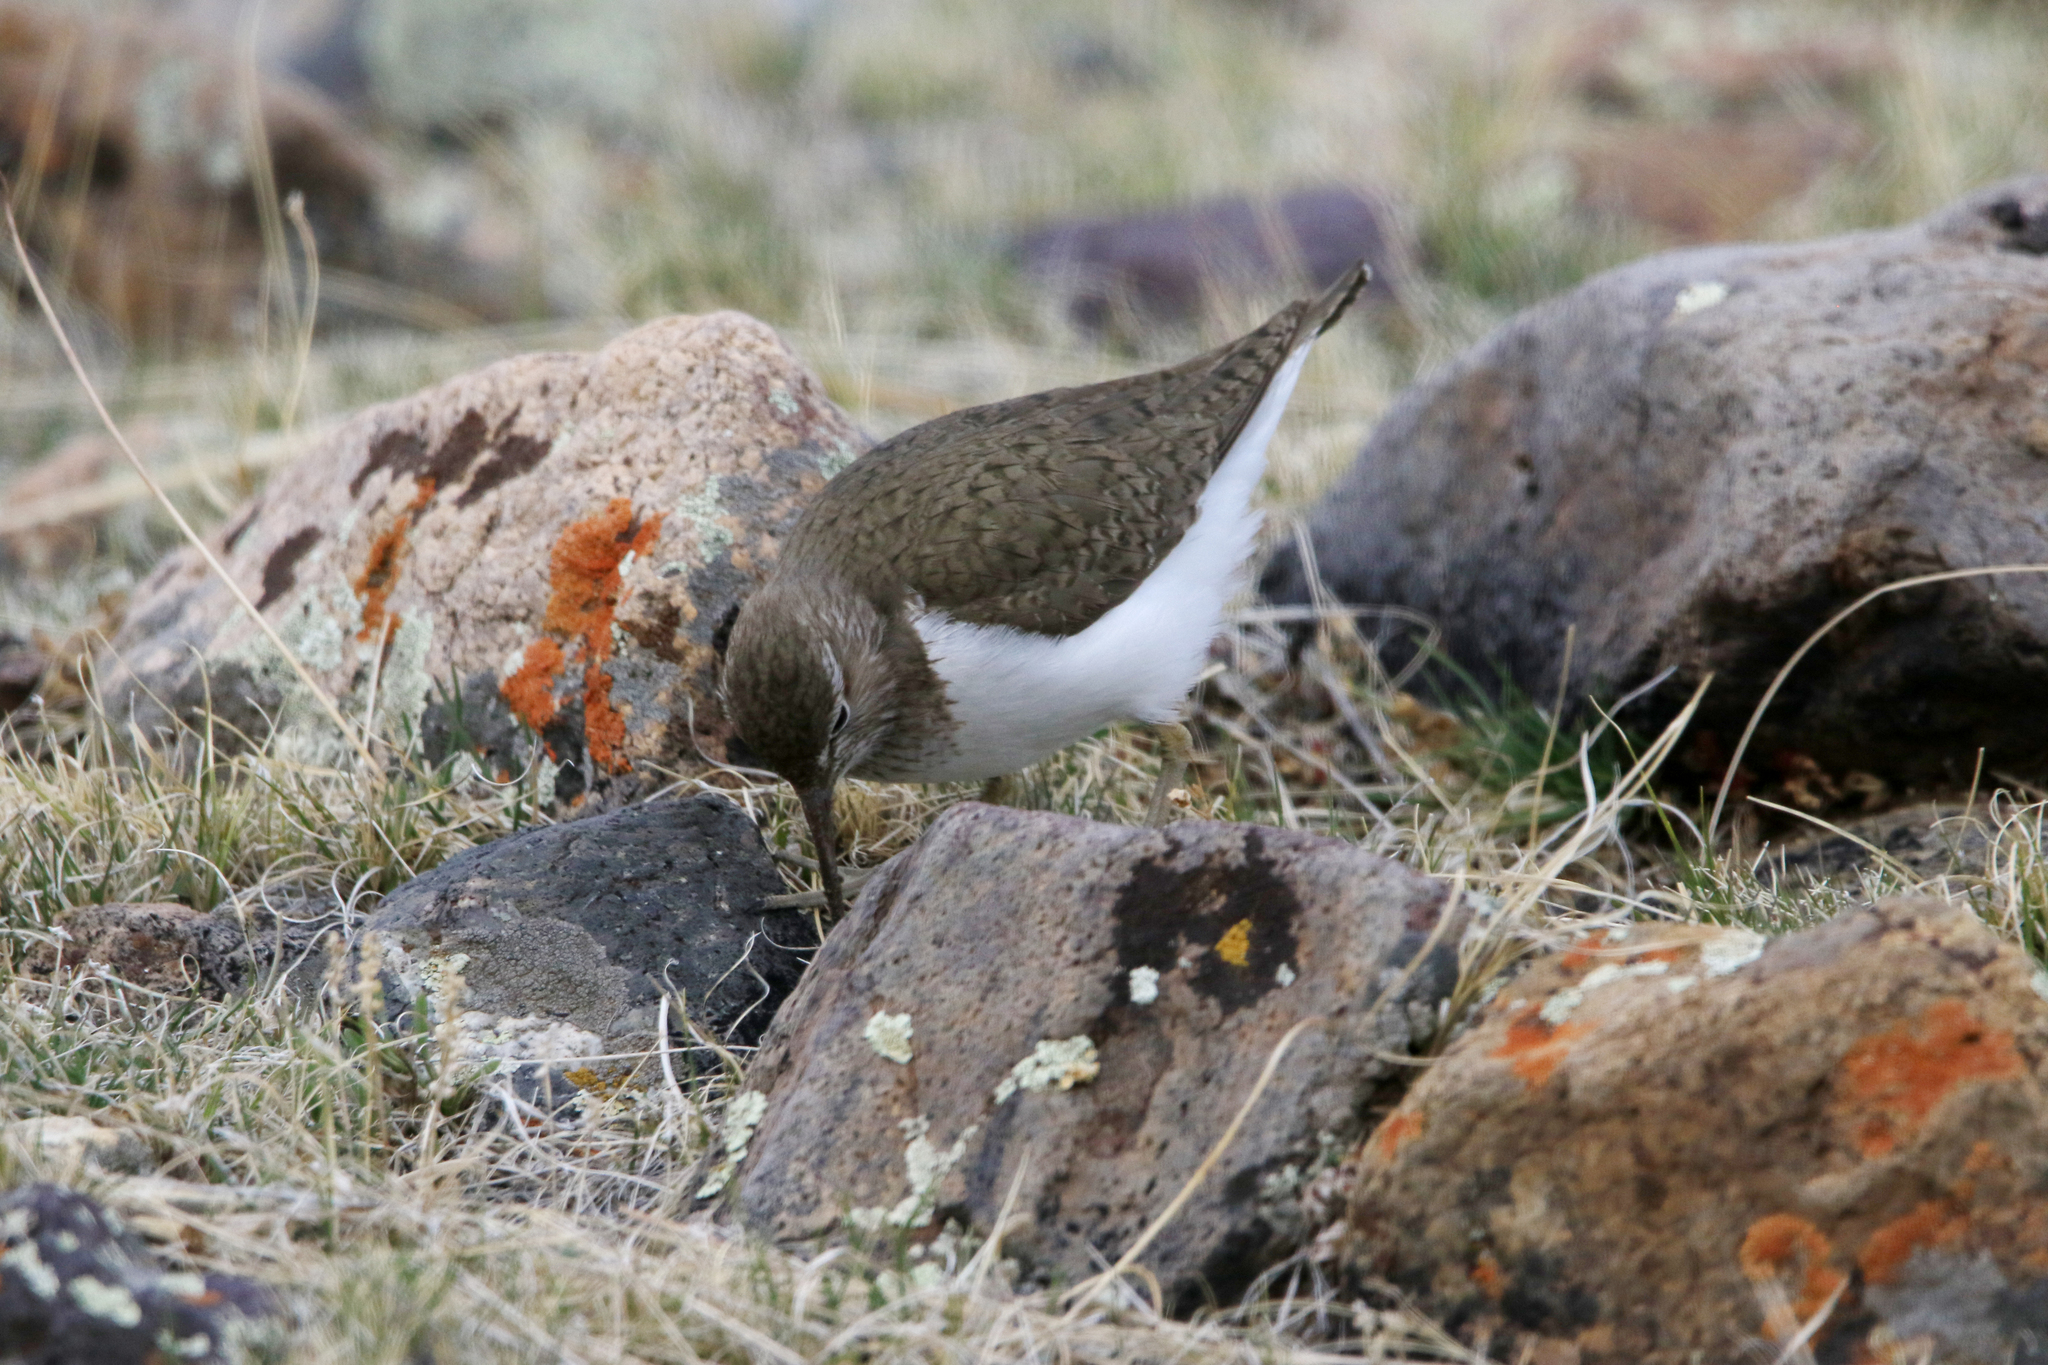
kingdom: Animalia
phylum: Chordata
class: Aves
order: Charadriiformes
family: Scolopacidae
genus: Tringa
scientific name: Tringa ochropus
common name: Green sandpiper
